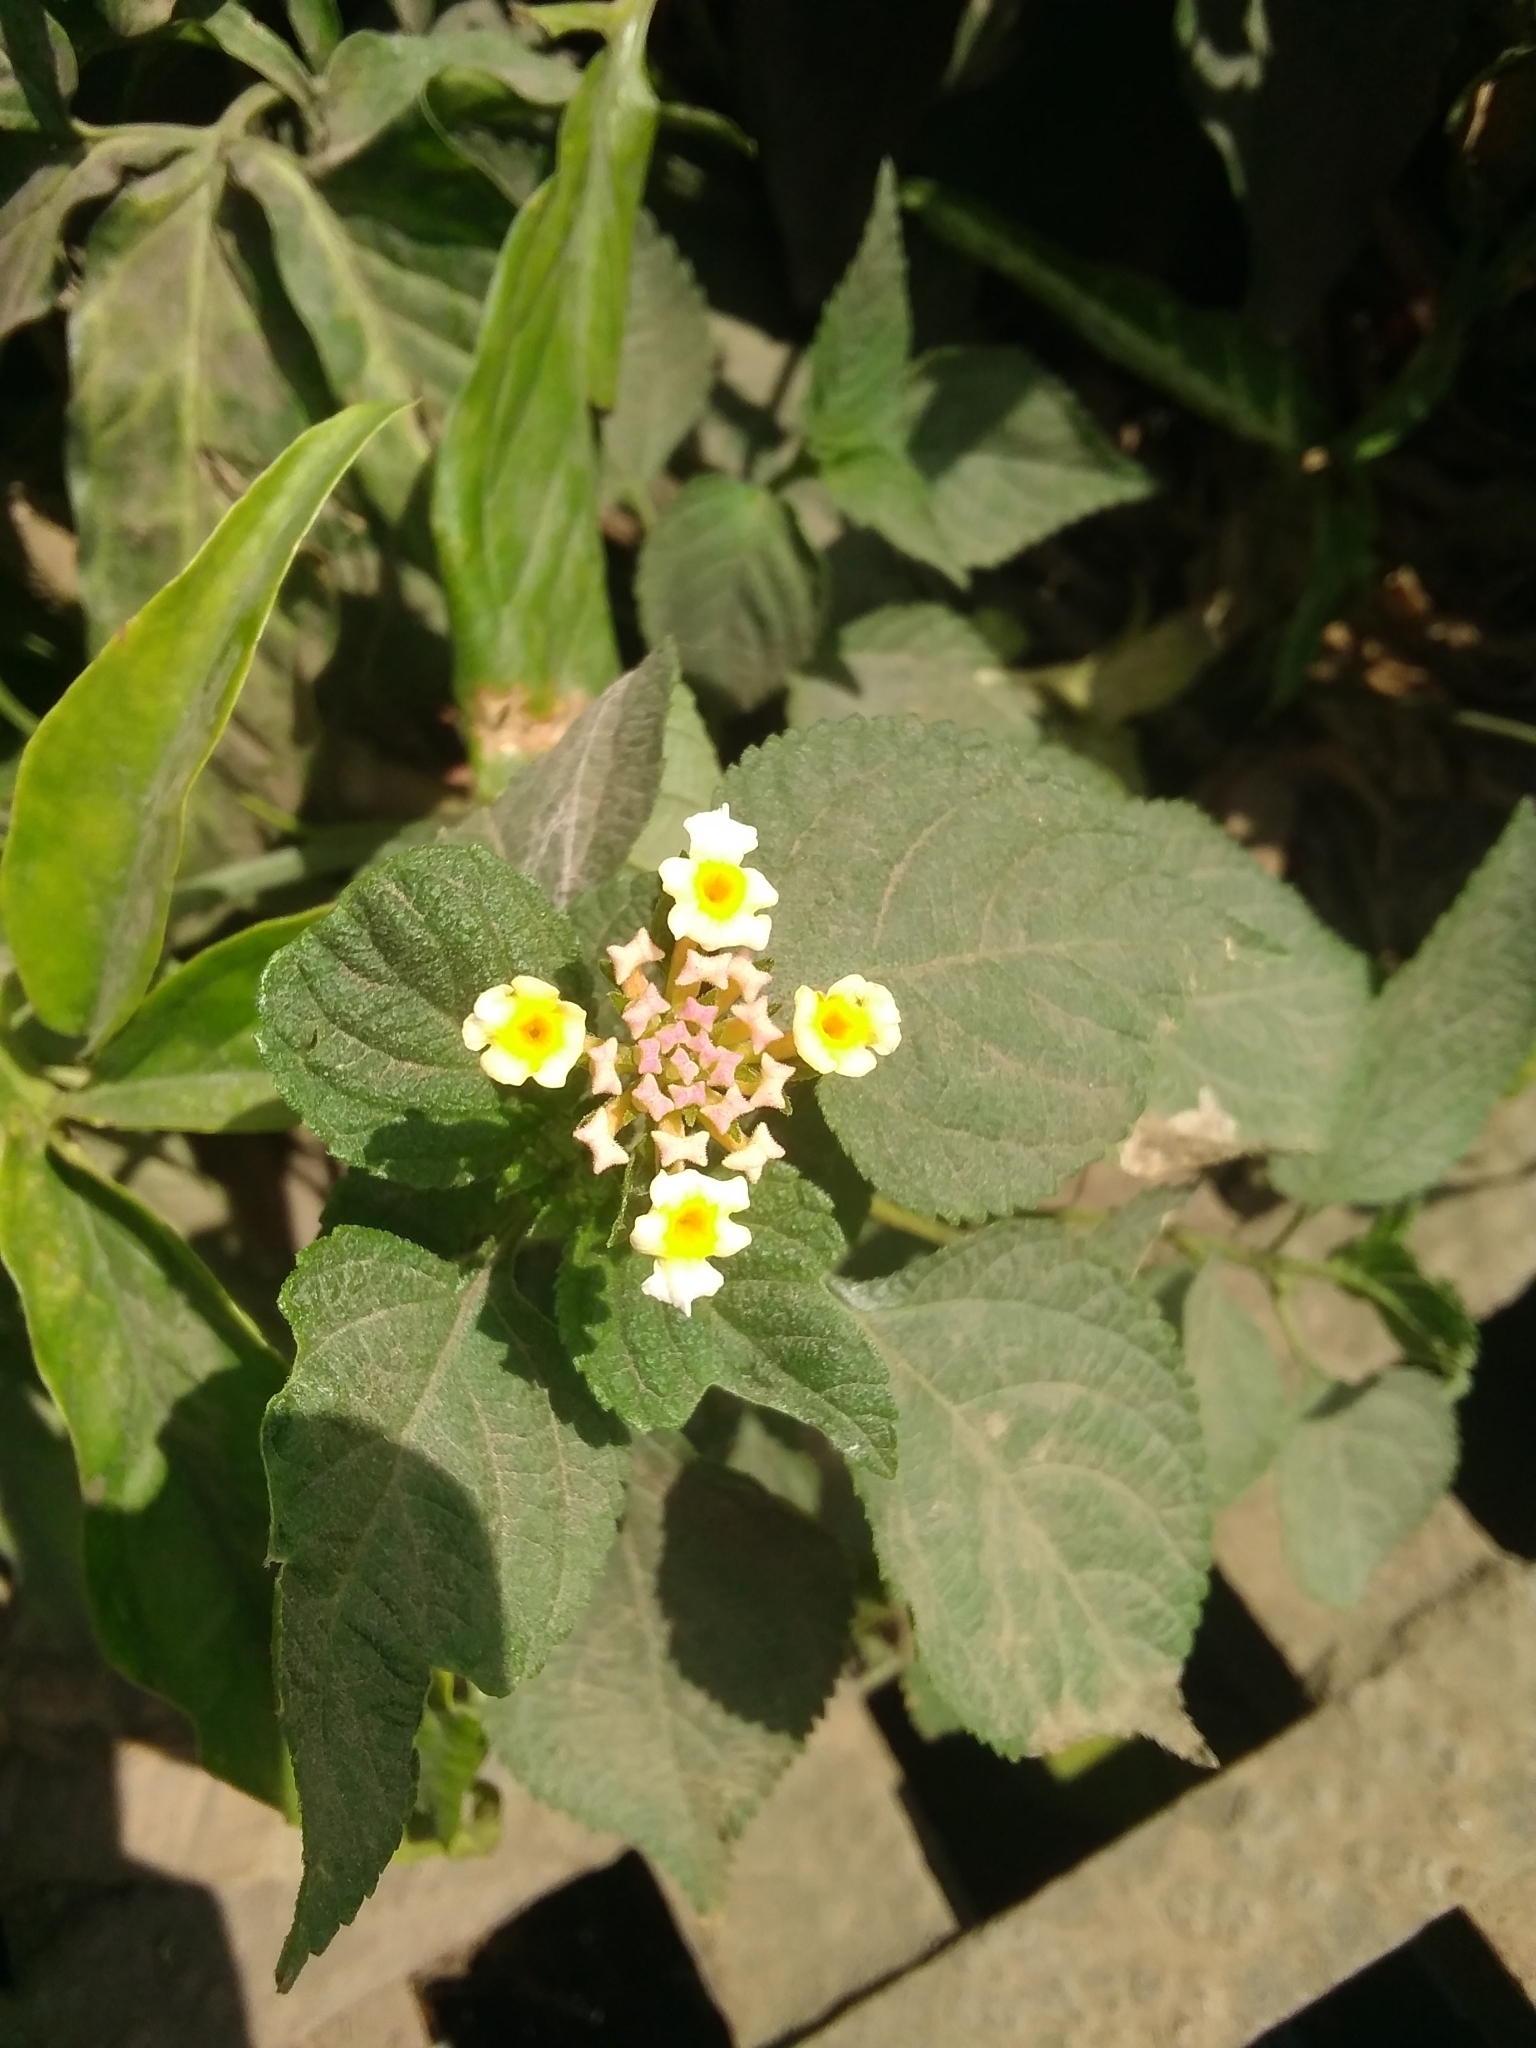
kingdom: Plantae
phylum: Tracheophyta
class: Magnoliopsida
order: Lamiales
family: Verbenaceae
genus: Lantana
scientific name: Lantana camara
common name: Lantana
